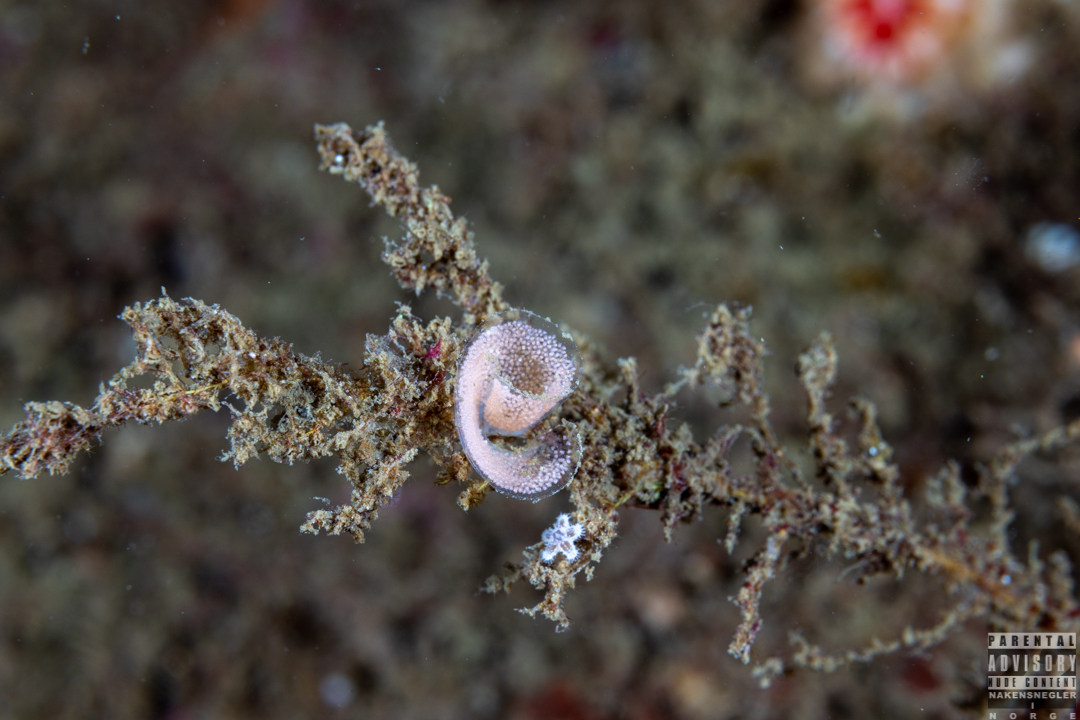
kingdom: Animalia
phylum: Mollusca
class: Gastropoda
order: Nudibranchia
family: Eubranchidae
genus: Eubranchus
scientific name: Eubranchus tricolor
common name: Painted balloon aeolis
